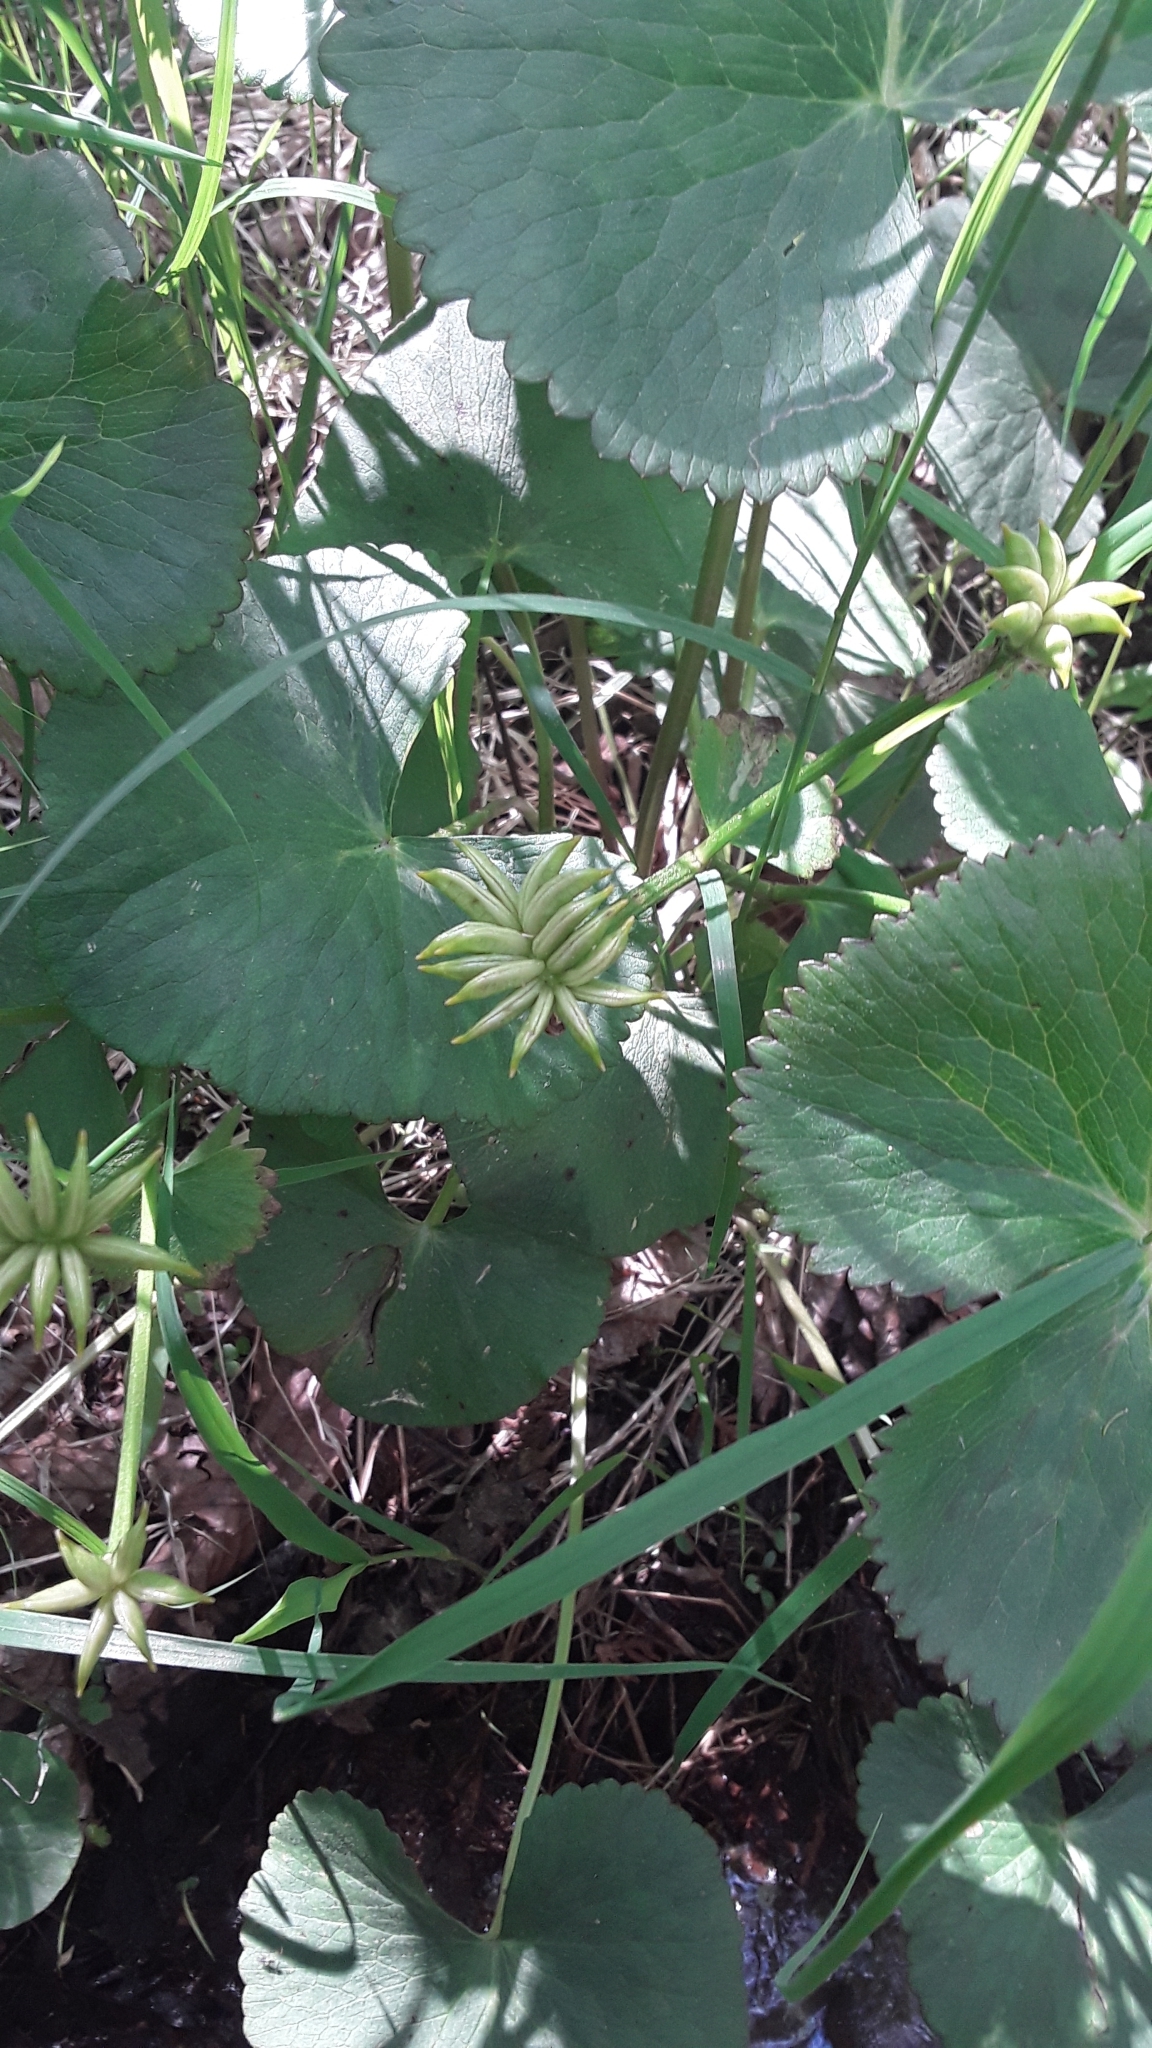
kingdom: Plantae
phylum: Tracheophyta
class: Magnoliopsida
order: Ranunculales
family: Ranunculaceae
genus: Caltha
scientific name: Caltha palustris
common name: Marsh marigold
